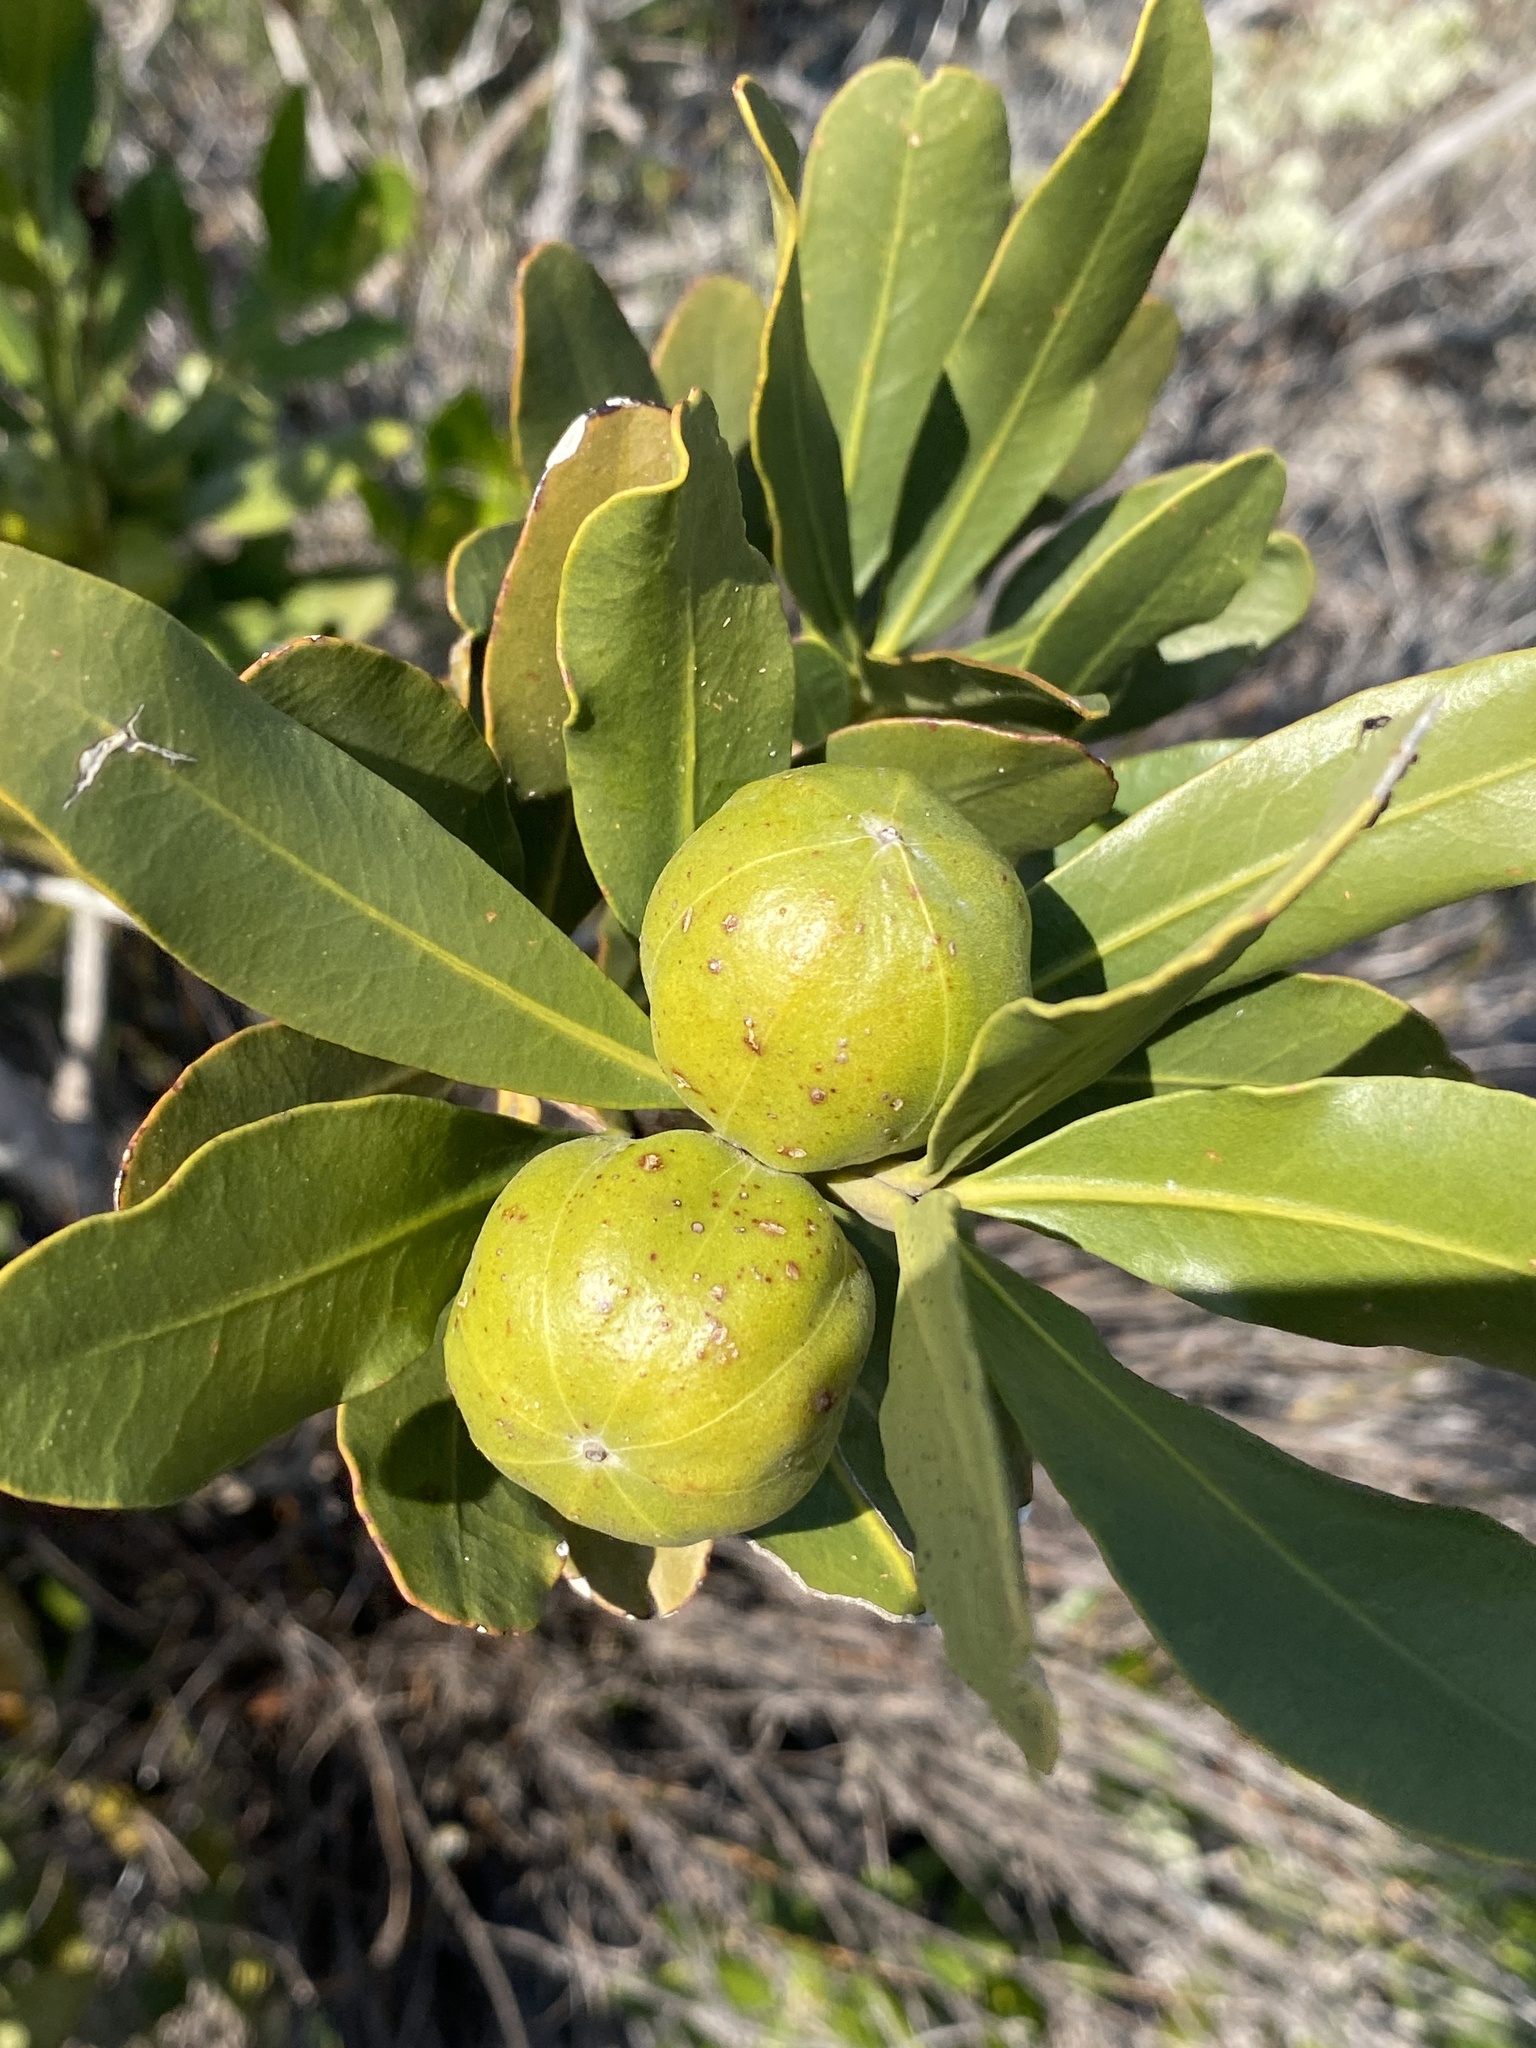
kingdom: Plantae
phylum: Tracheophyta
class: Magnoliopsida
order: Malpighiales
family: Picrodendraceae
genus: Hyaenanche
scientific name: Hyaenanche globosa
